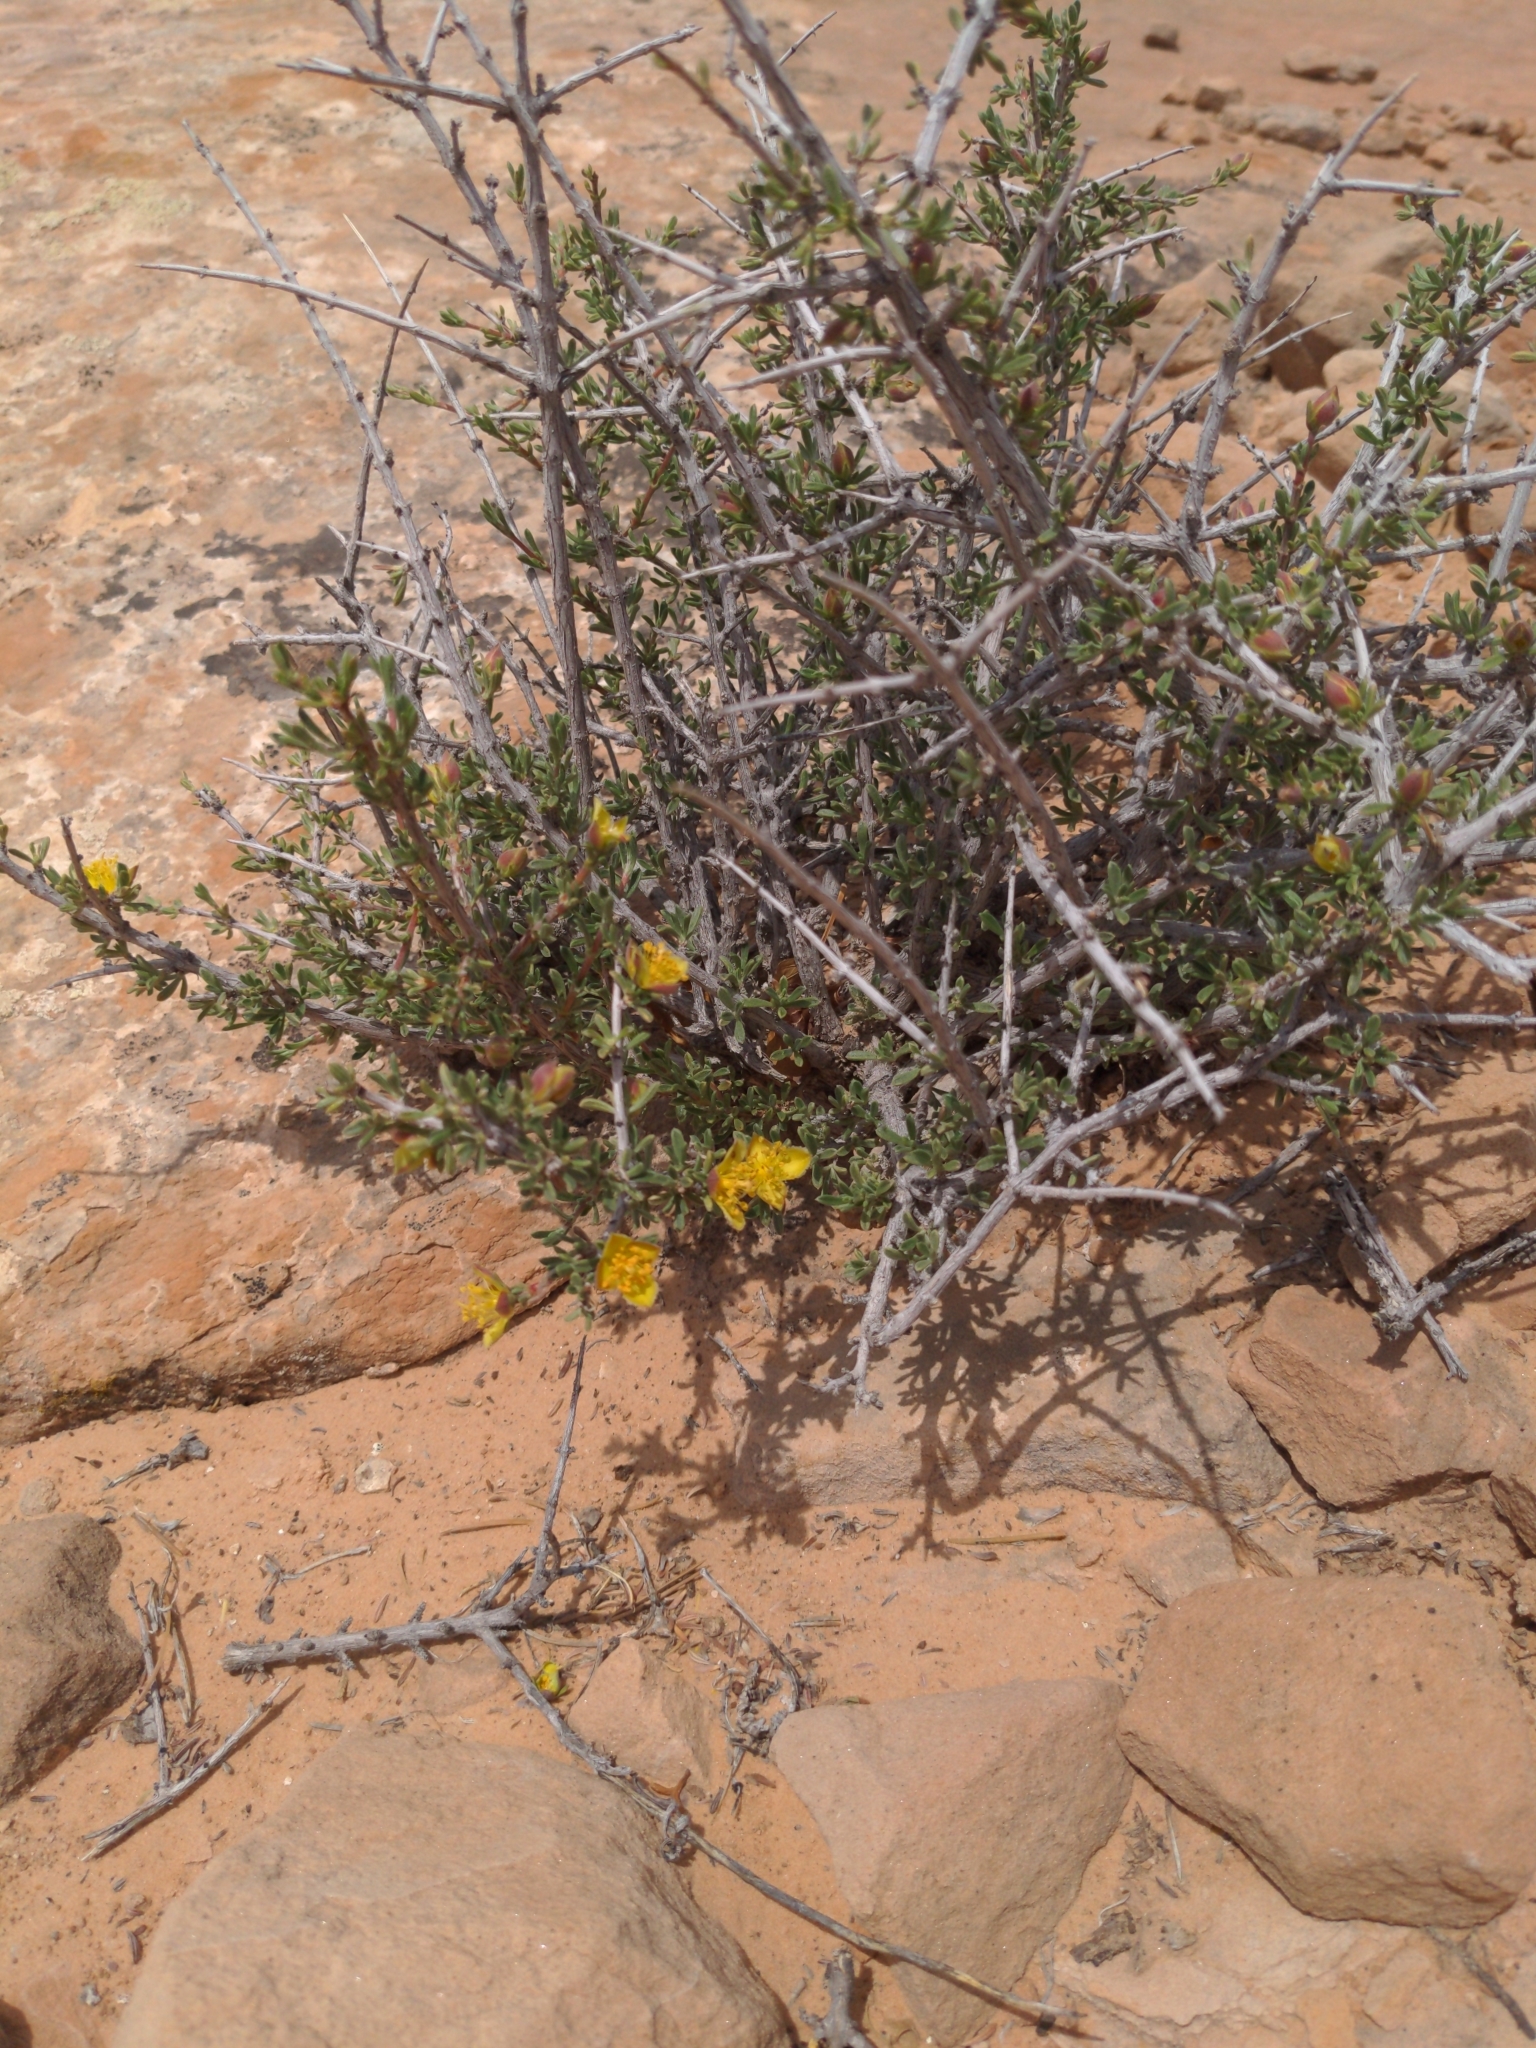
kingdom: Plantae
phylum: Tracheophyta
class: Magnoliopsida
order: Rosales
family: Rosaceae
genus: Coleogyne
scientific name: Coleogyne ramosissima
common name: Blackbrush
